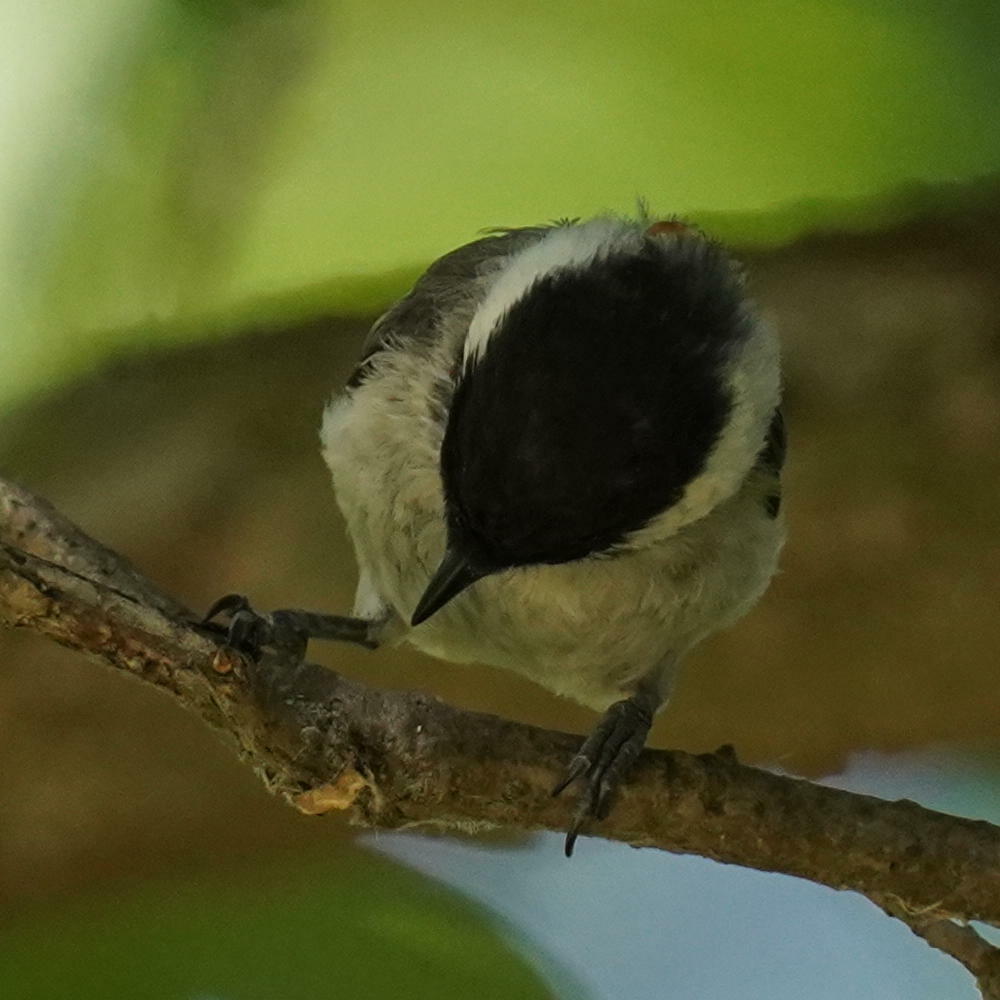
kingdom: Animalia
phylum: Chordata
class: Aves
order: Passeriformes
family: Paridae
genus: Poecile
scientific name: Poecile atricapillus
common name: Black-capped chickadee
